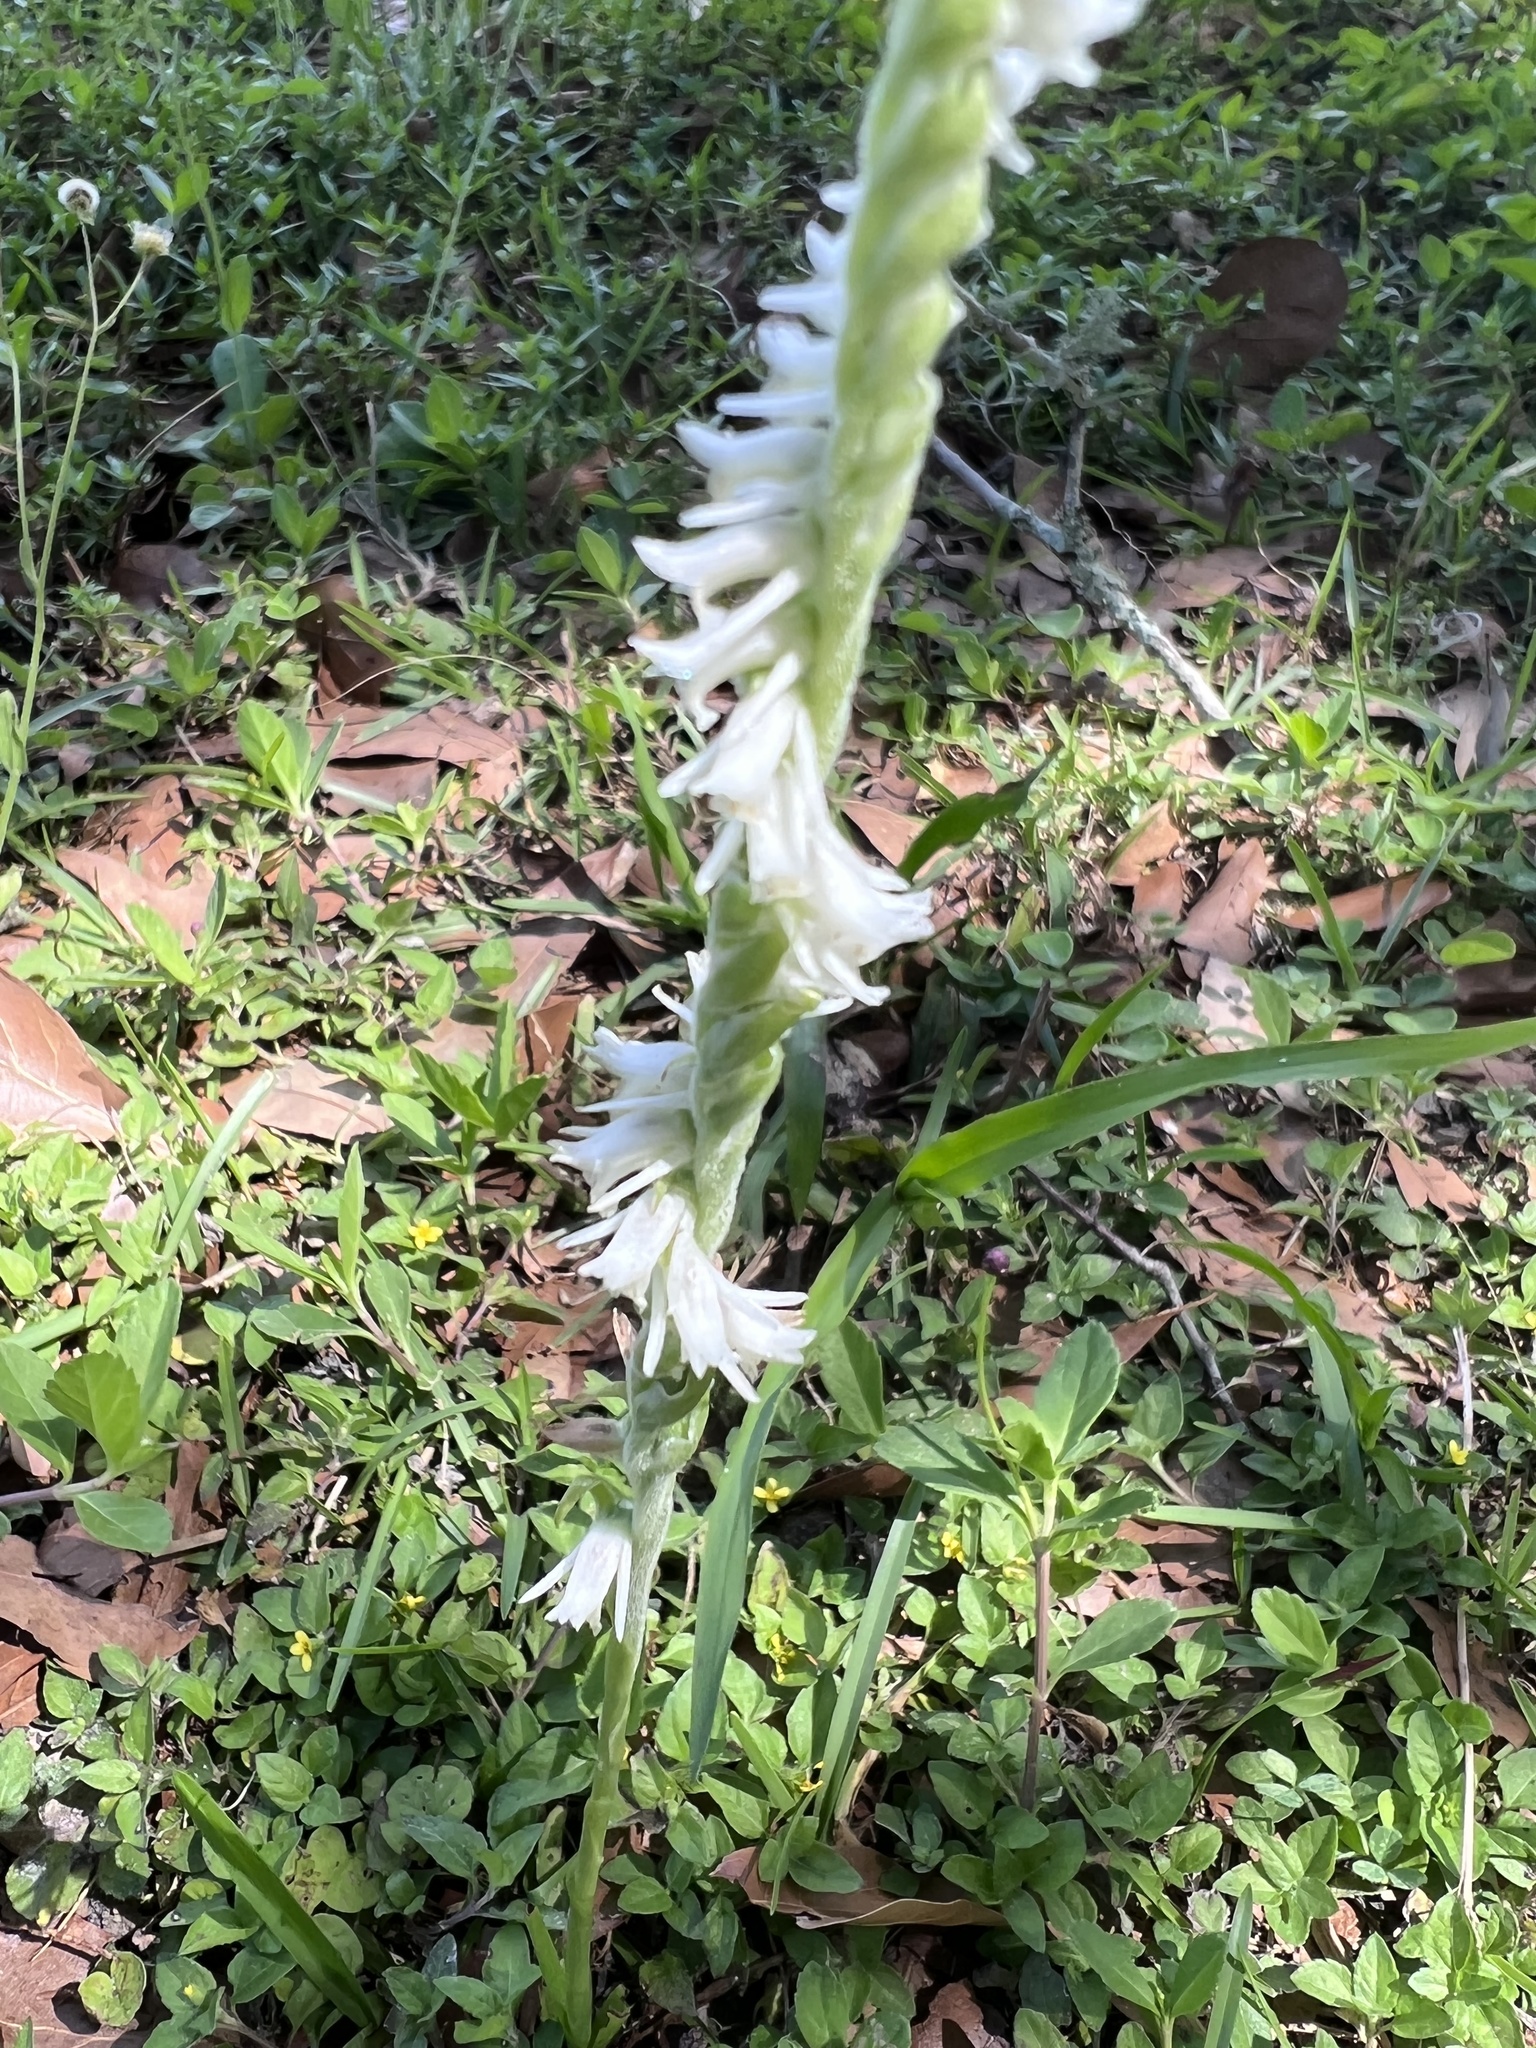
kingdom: Plantae
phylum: Tracheophyta
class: Liliopsida
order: Asparagales
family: Orchidaceae
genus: Spiranthes
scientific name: Spiranthes vernalis
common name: Spring ladies'-tresses
